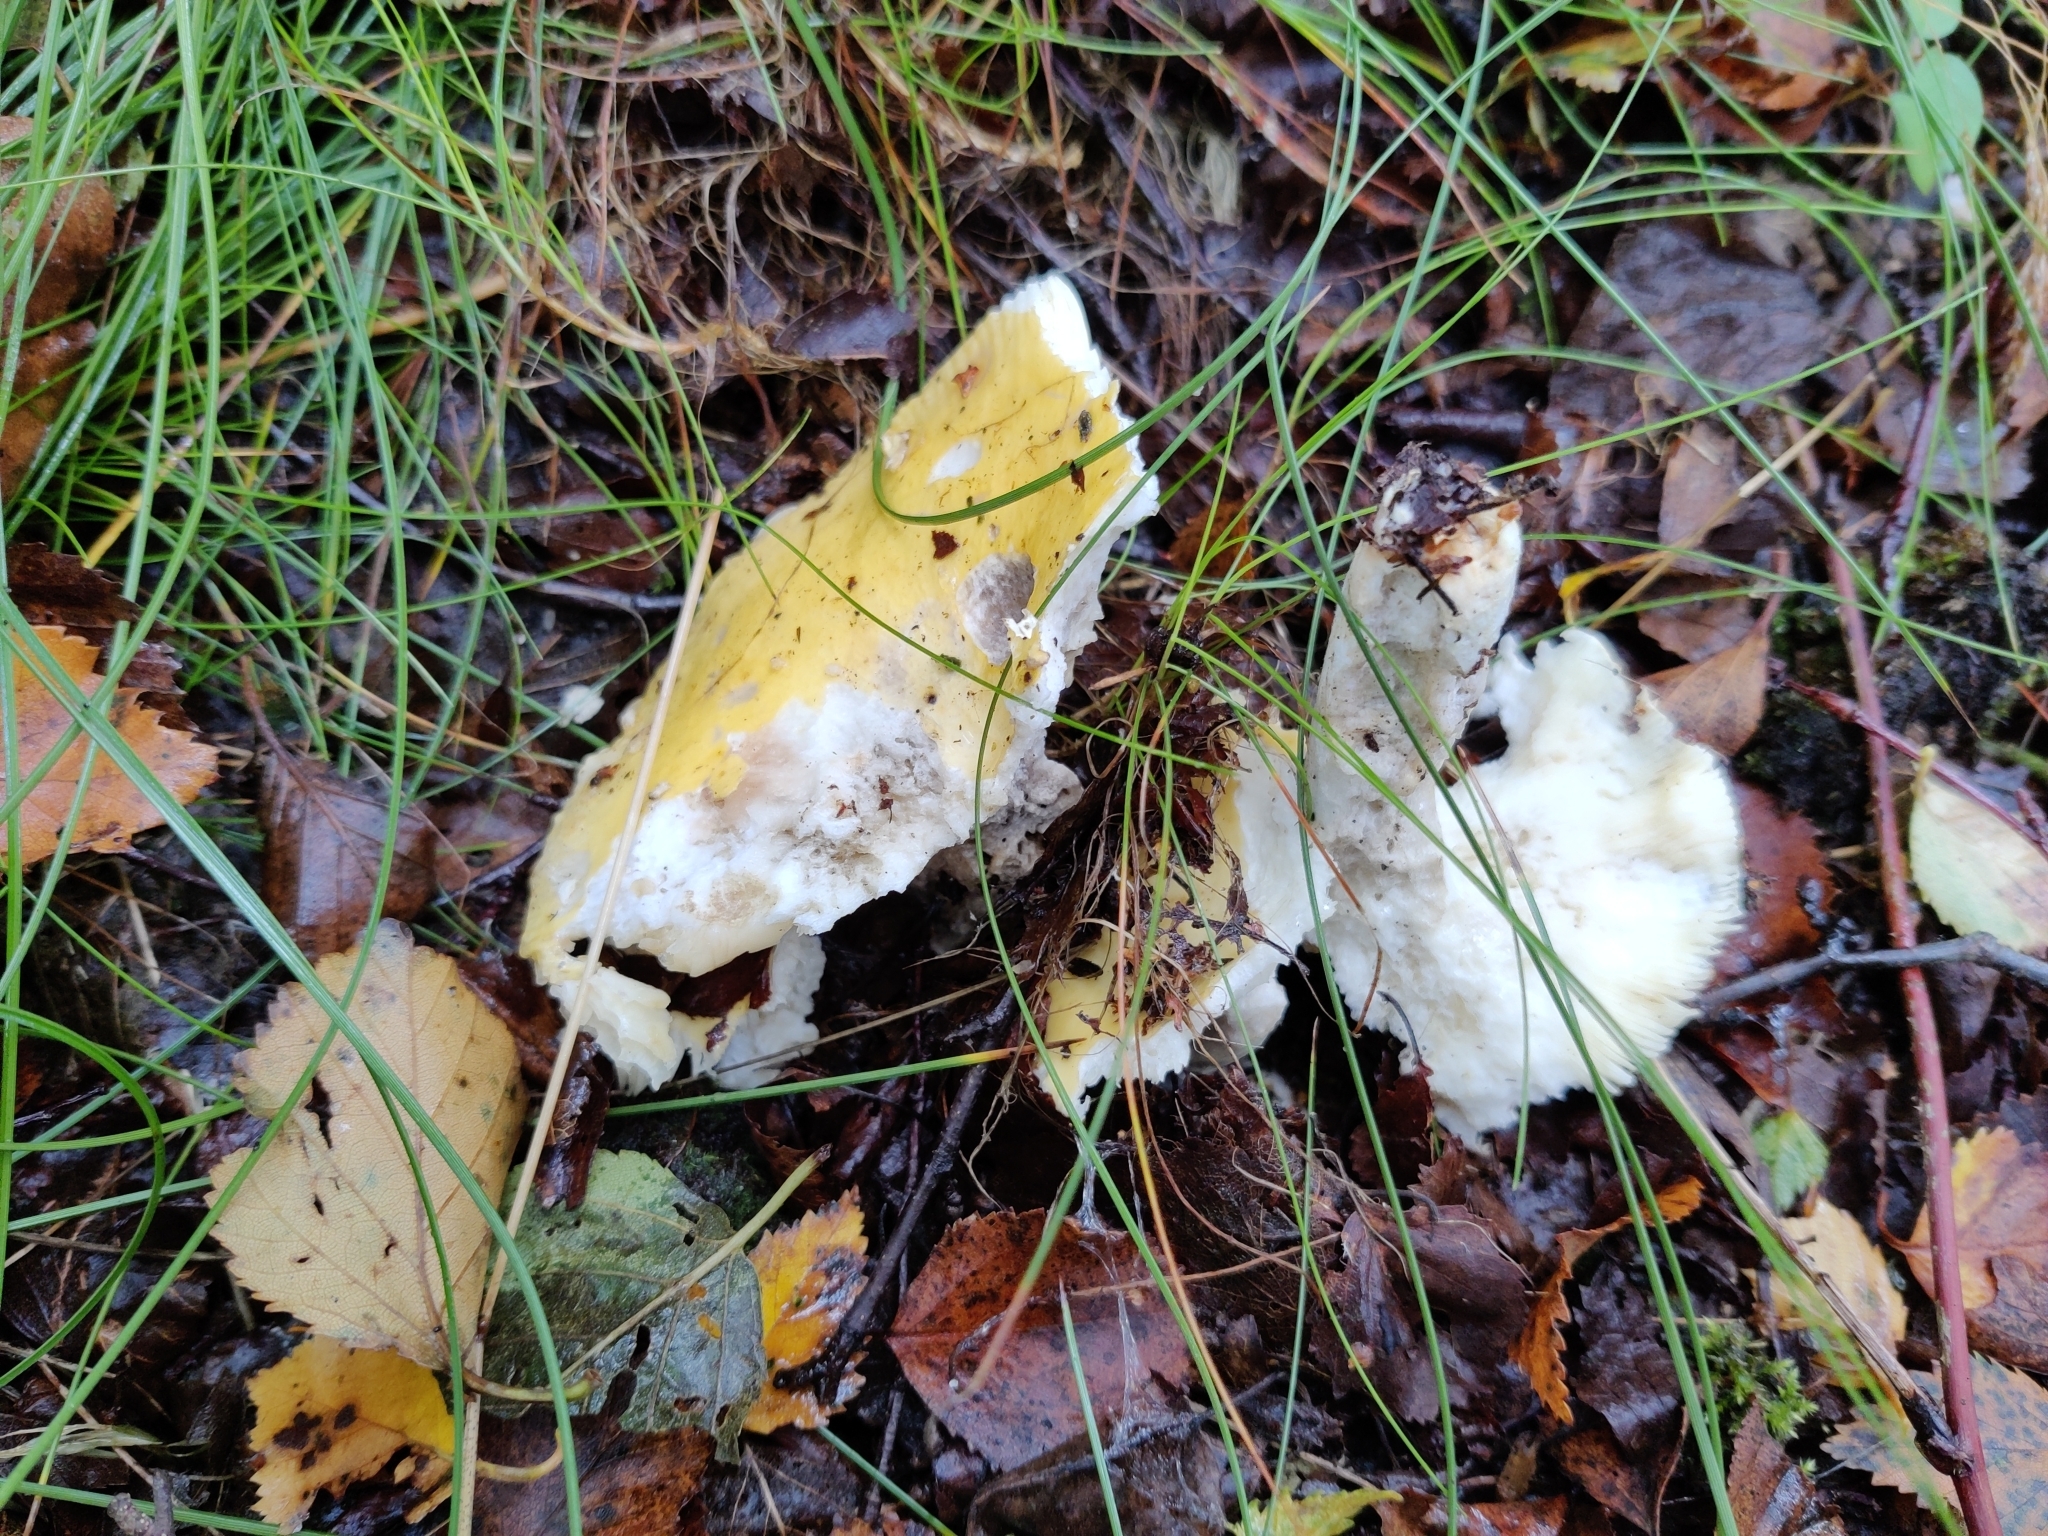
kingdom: Fungi
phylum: Basidiomycota
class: Agaricomycetes
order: Russulales
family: Russulaceae
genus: Russula
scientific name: Russula claroflava
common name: The yellow swamp brittlegill
